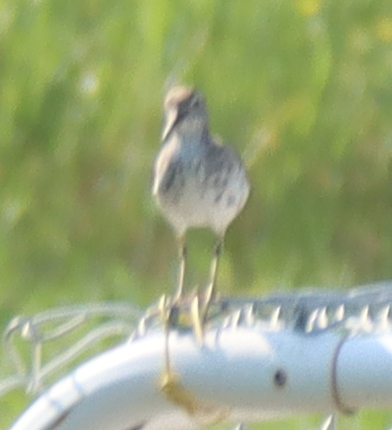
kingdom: Animalia
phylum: Chordata
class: Aves
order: Charadriiformes
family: Scolopacidae
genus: Actitis
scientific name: Actitis macularius
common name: Spotted sandpiper
